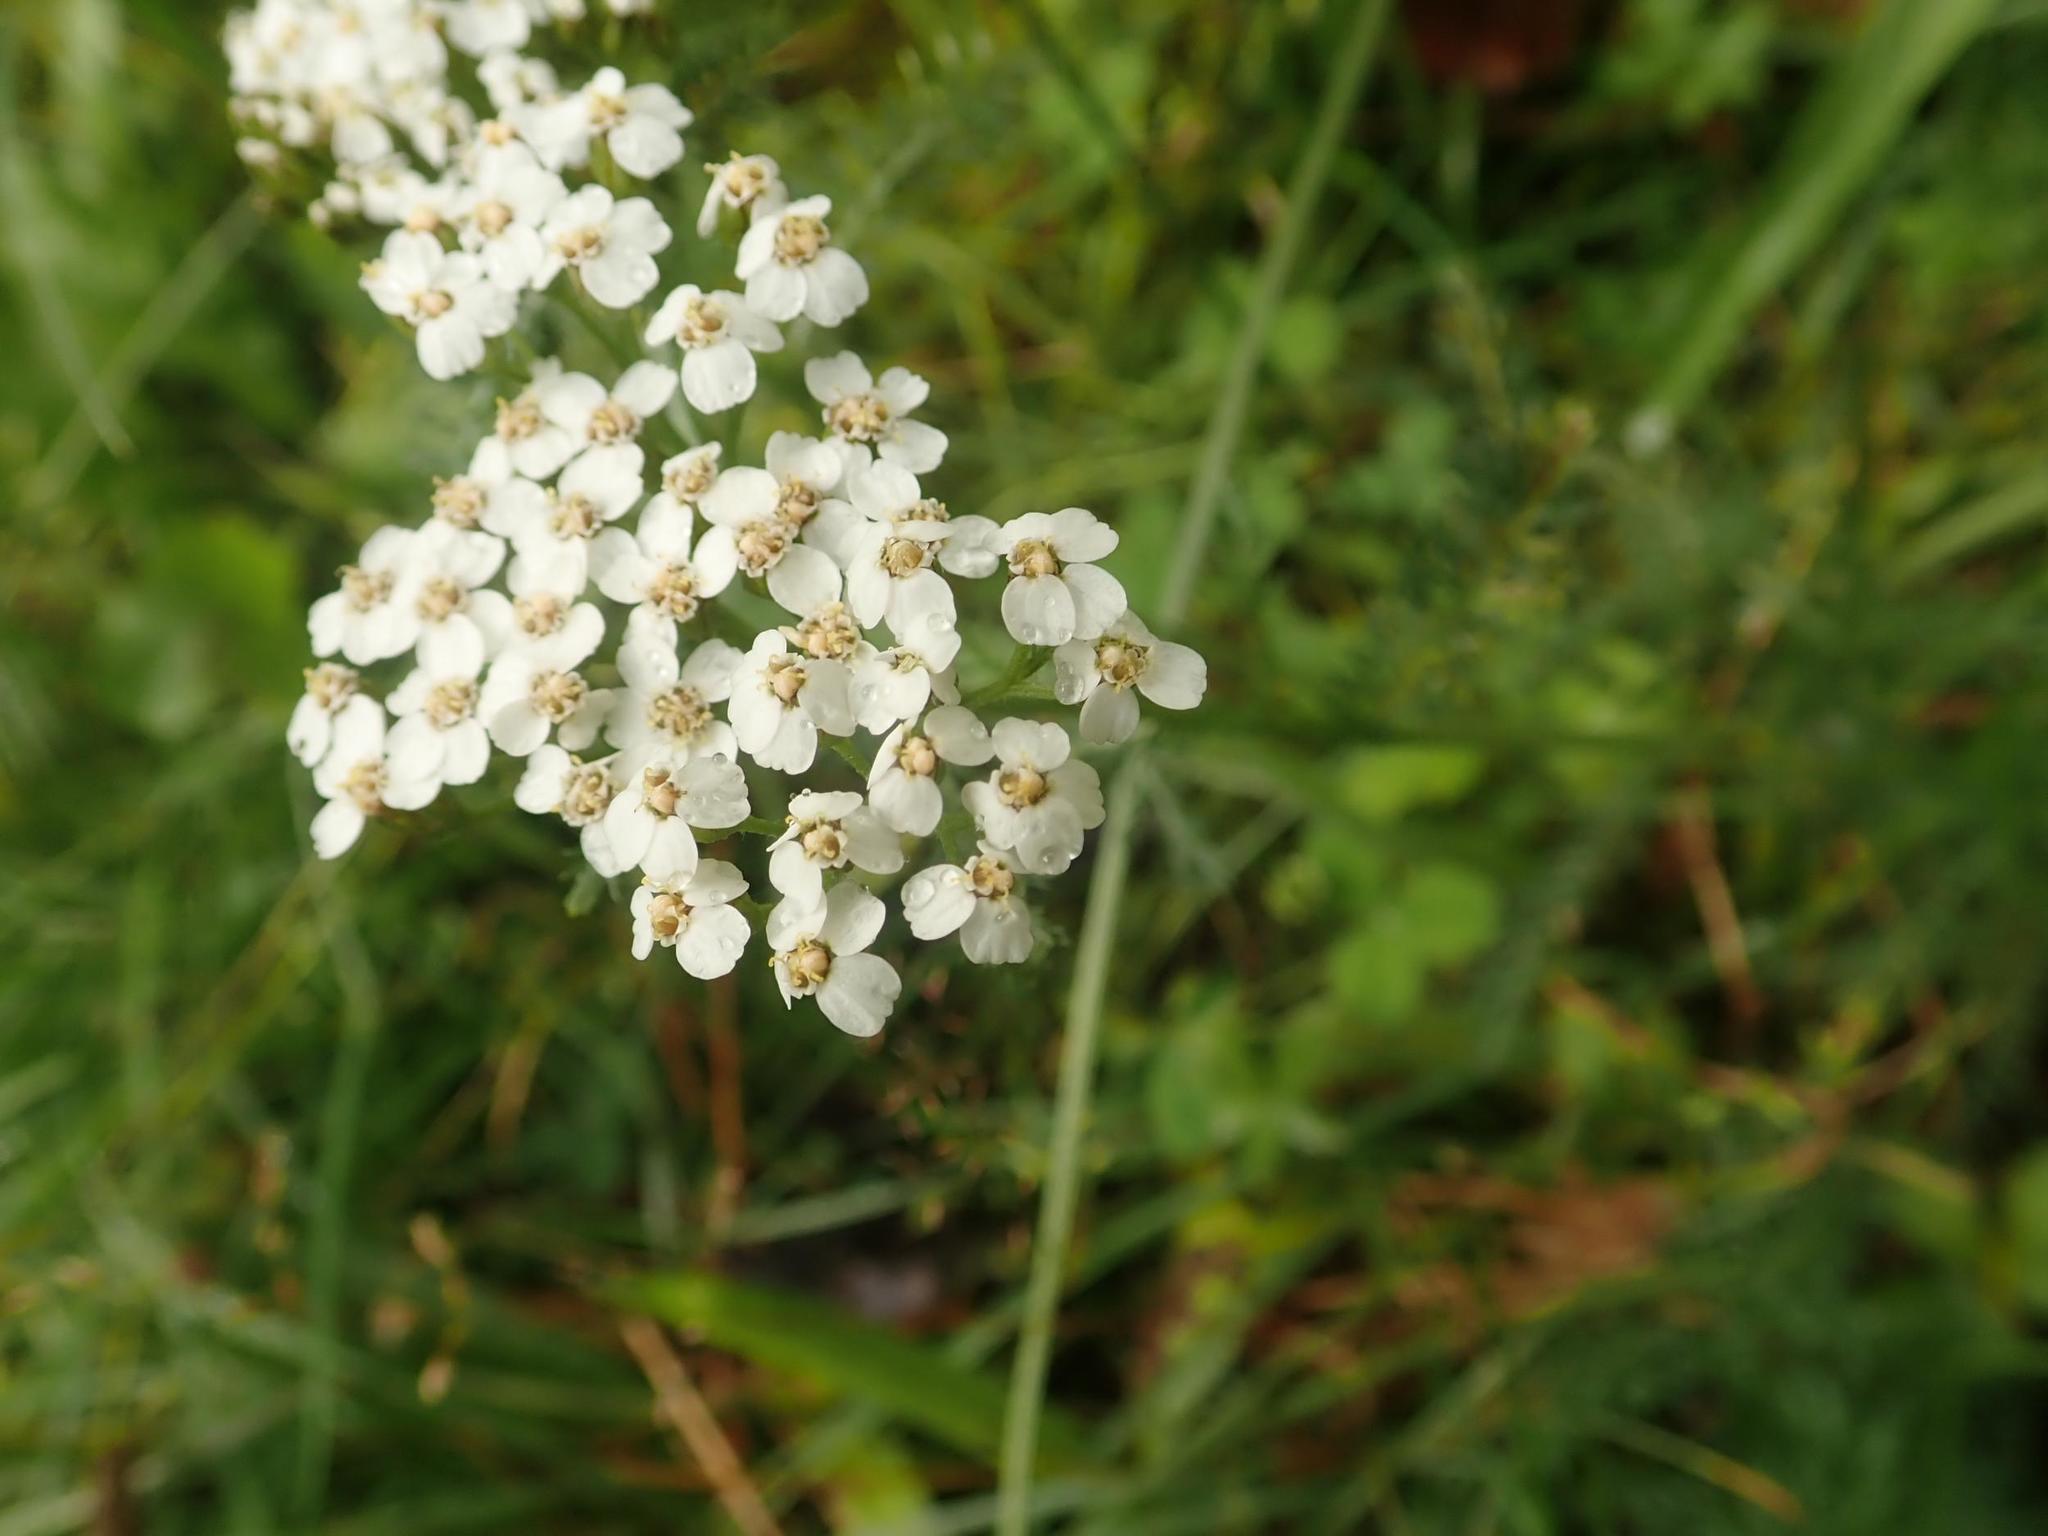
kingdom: Plantae
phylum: Tracheophyta
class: Magnoliopsida
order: Asterales
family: Asteraceae
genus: Achillea
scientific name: Achillea millefolium
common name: Yarrow
